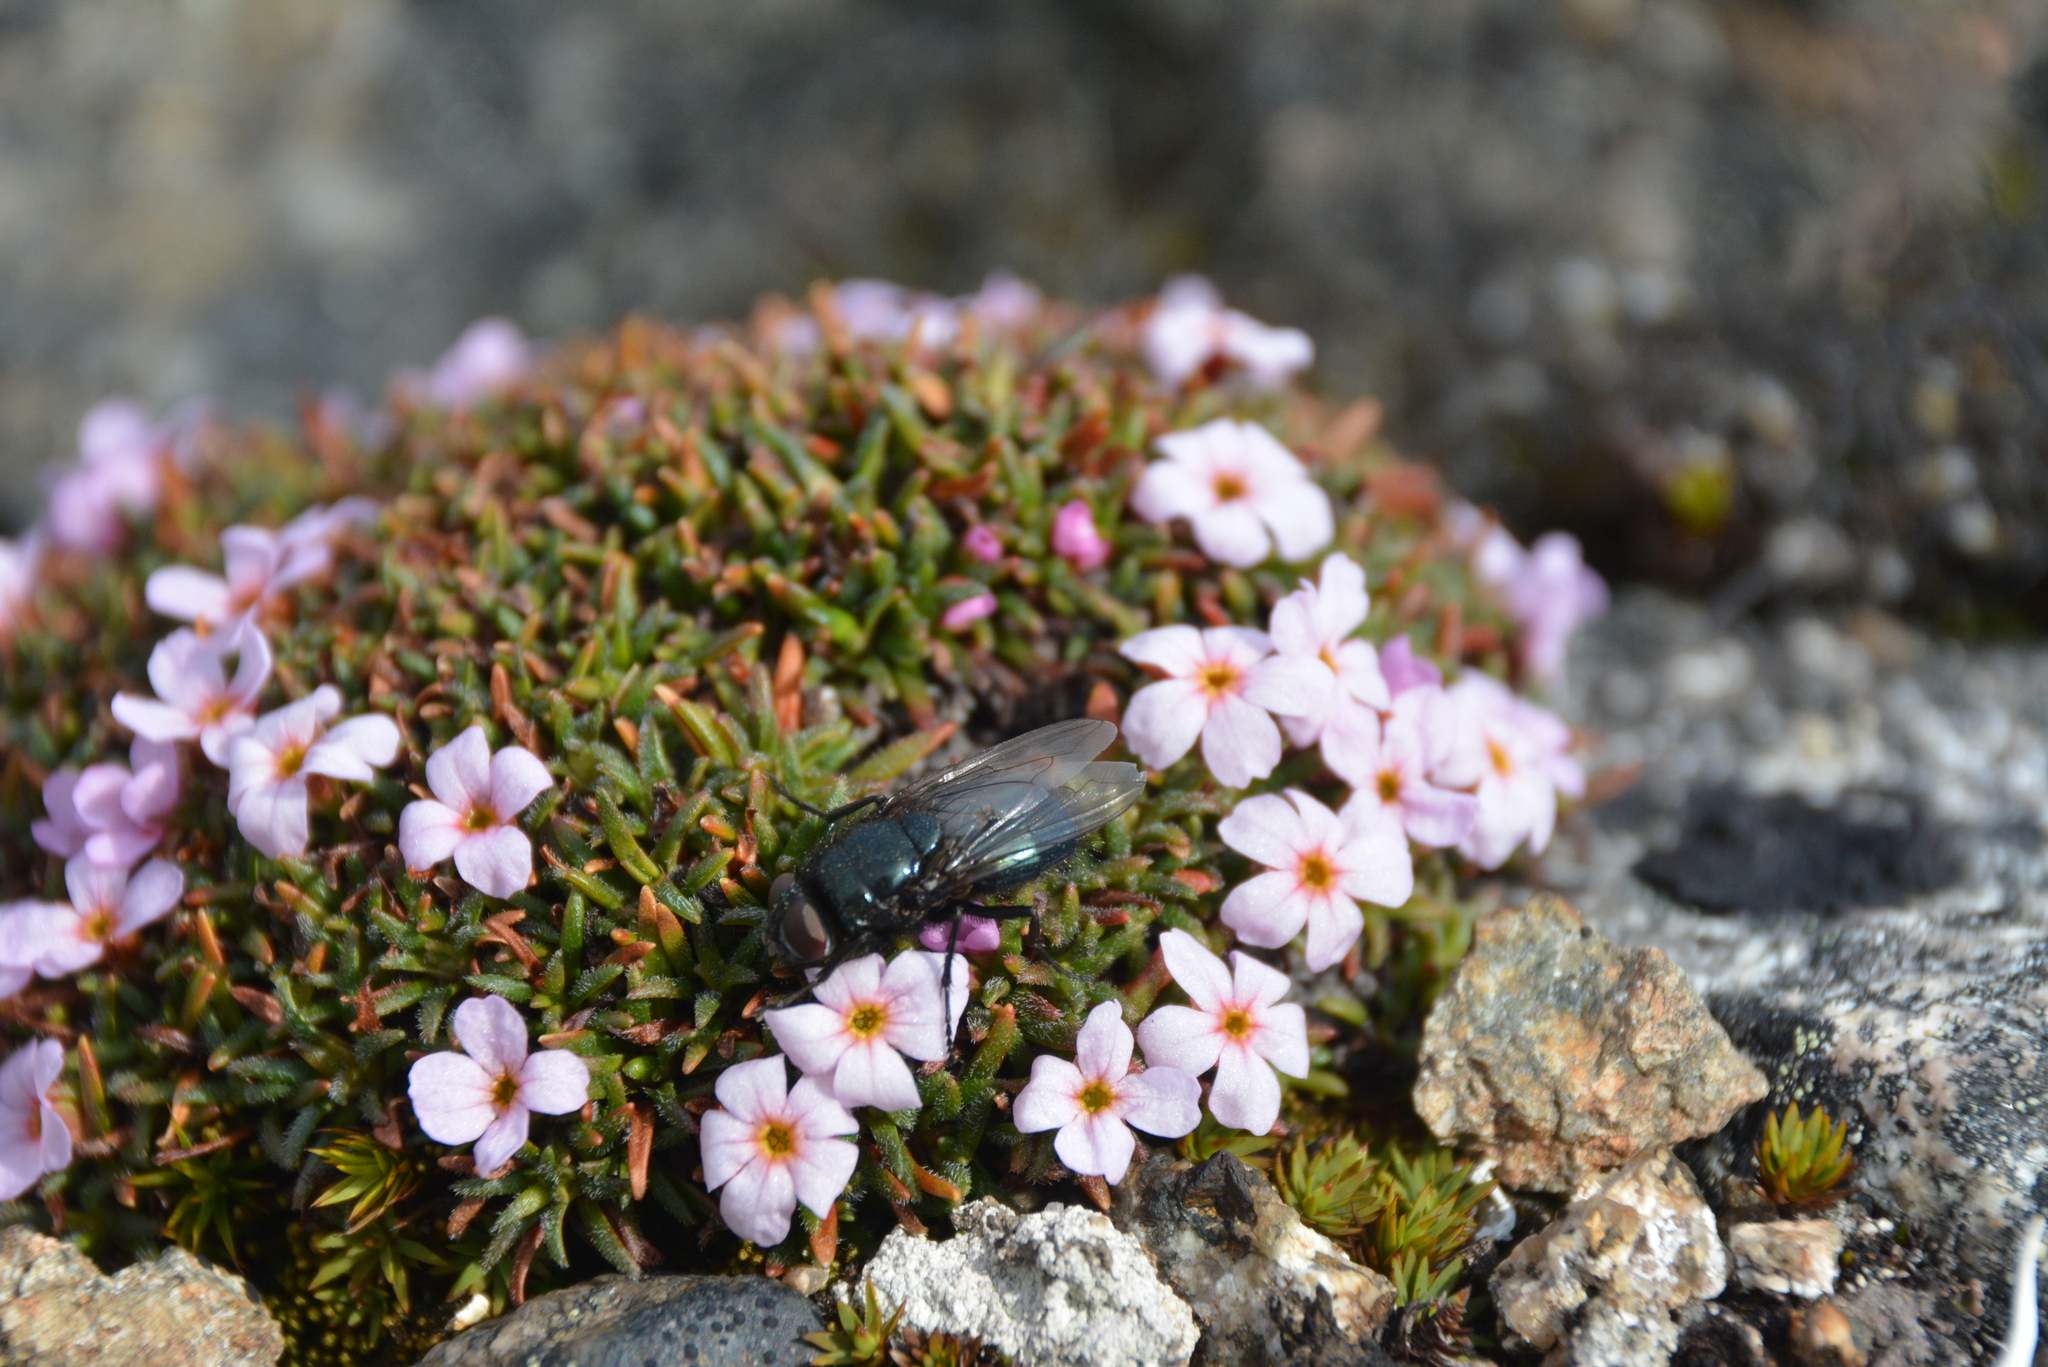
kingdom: Animalia
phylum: Arthropoda
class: Insecta
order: Diptera
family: Calliphoridae
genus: Protophormia
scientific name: Protophormia terraenovae
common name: Blackbottle
